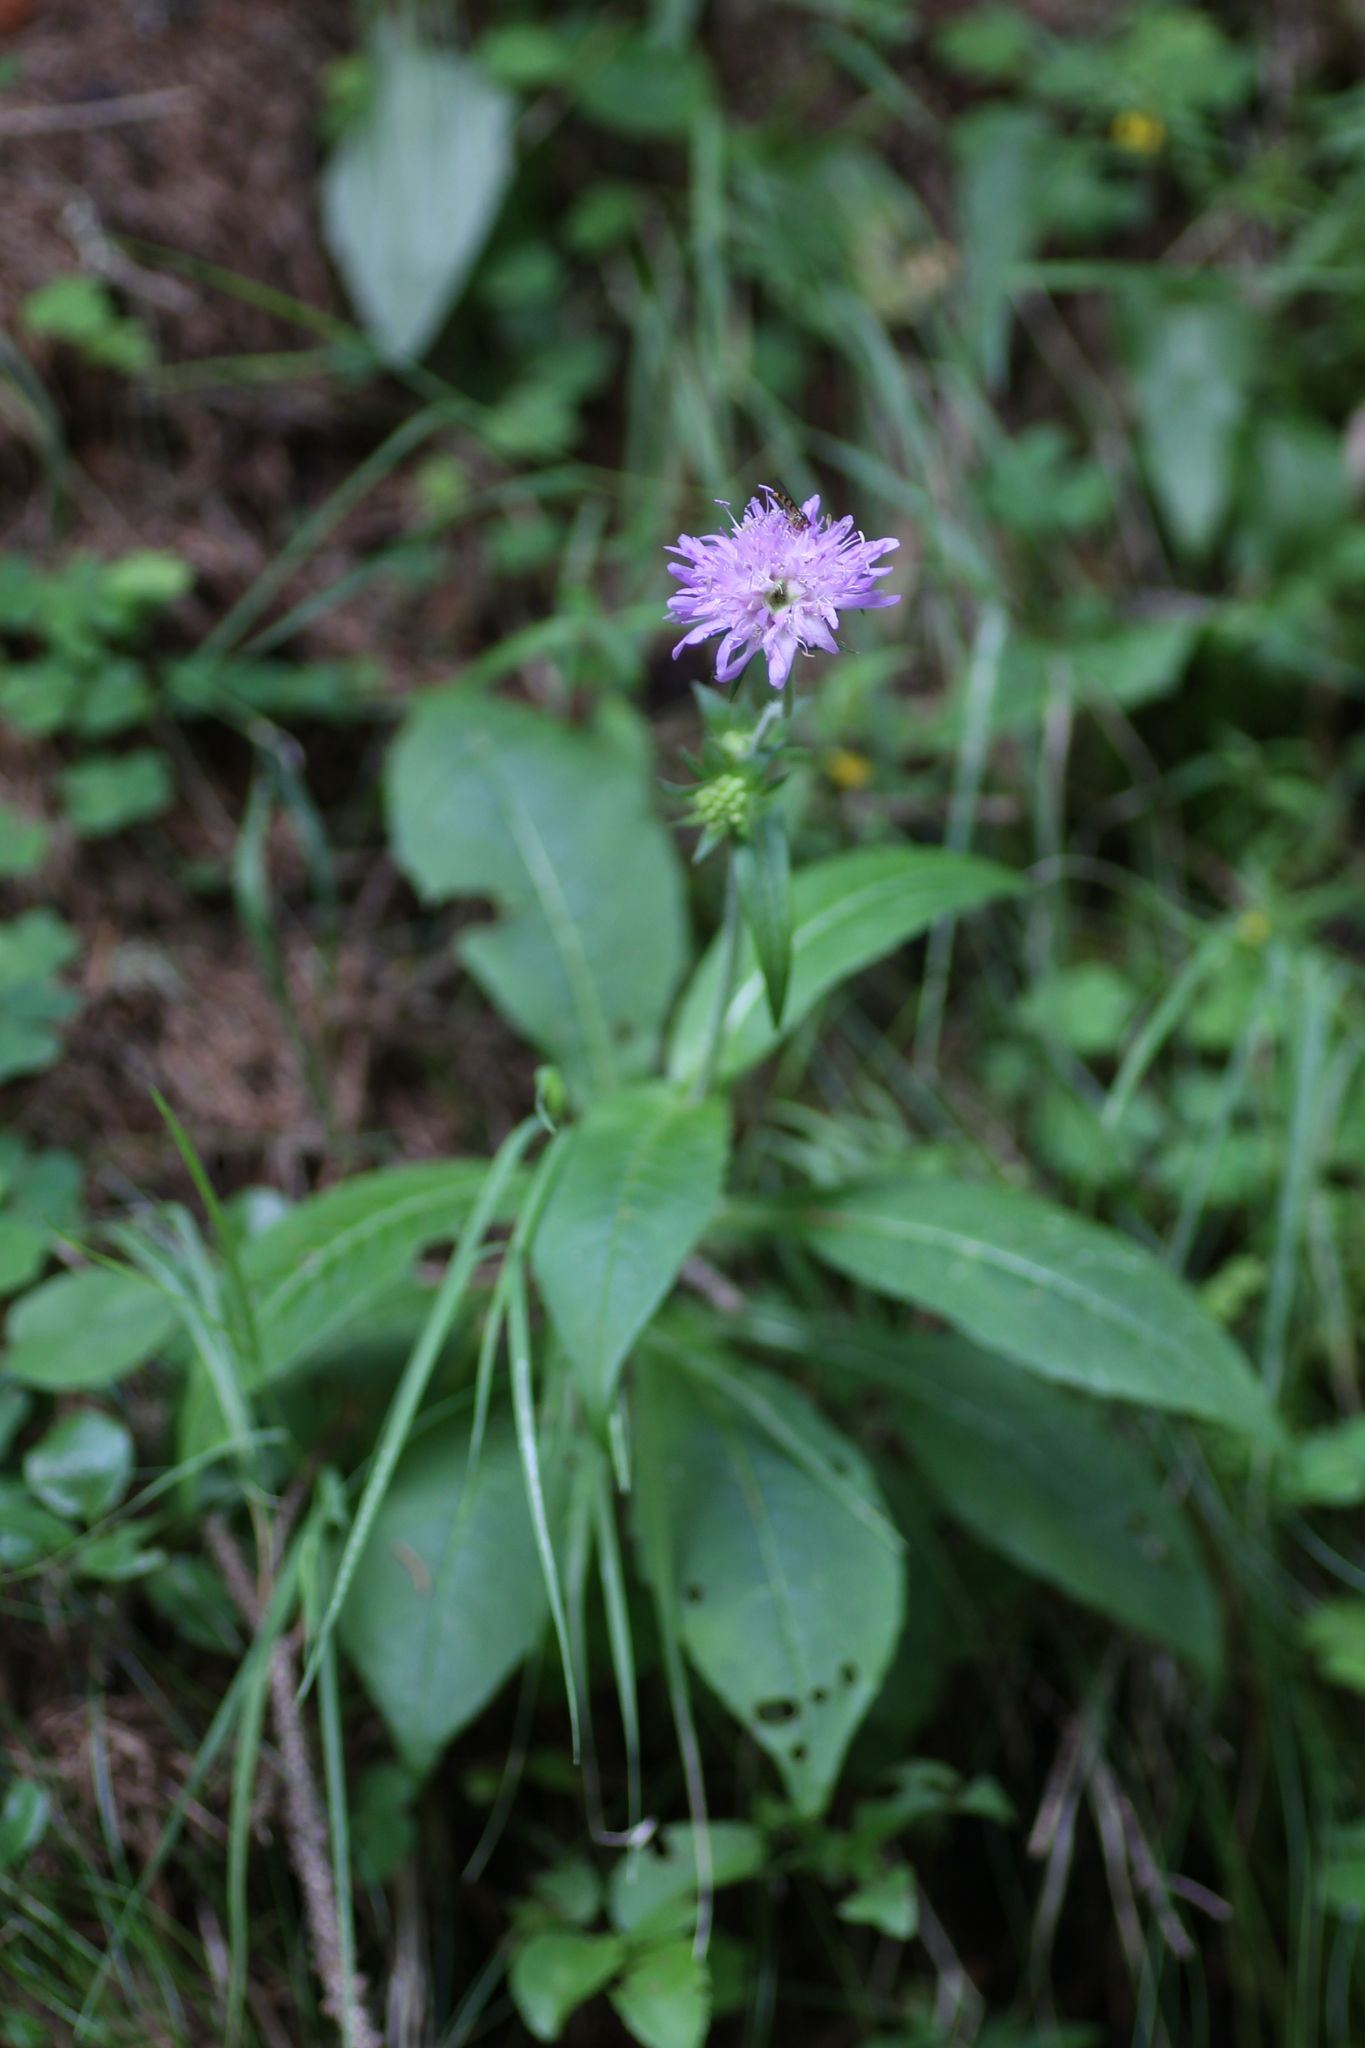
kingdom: Plantae
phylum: Tracheophyta
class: Magnoliopsida
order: Dipsacales
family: Caprifoliaceae
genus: Knautia
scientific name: Knautia dipsacifolia
